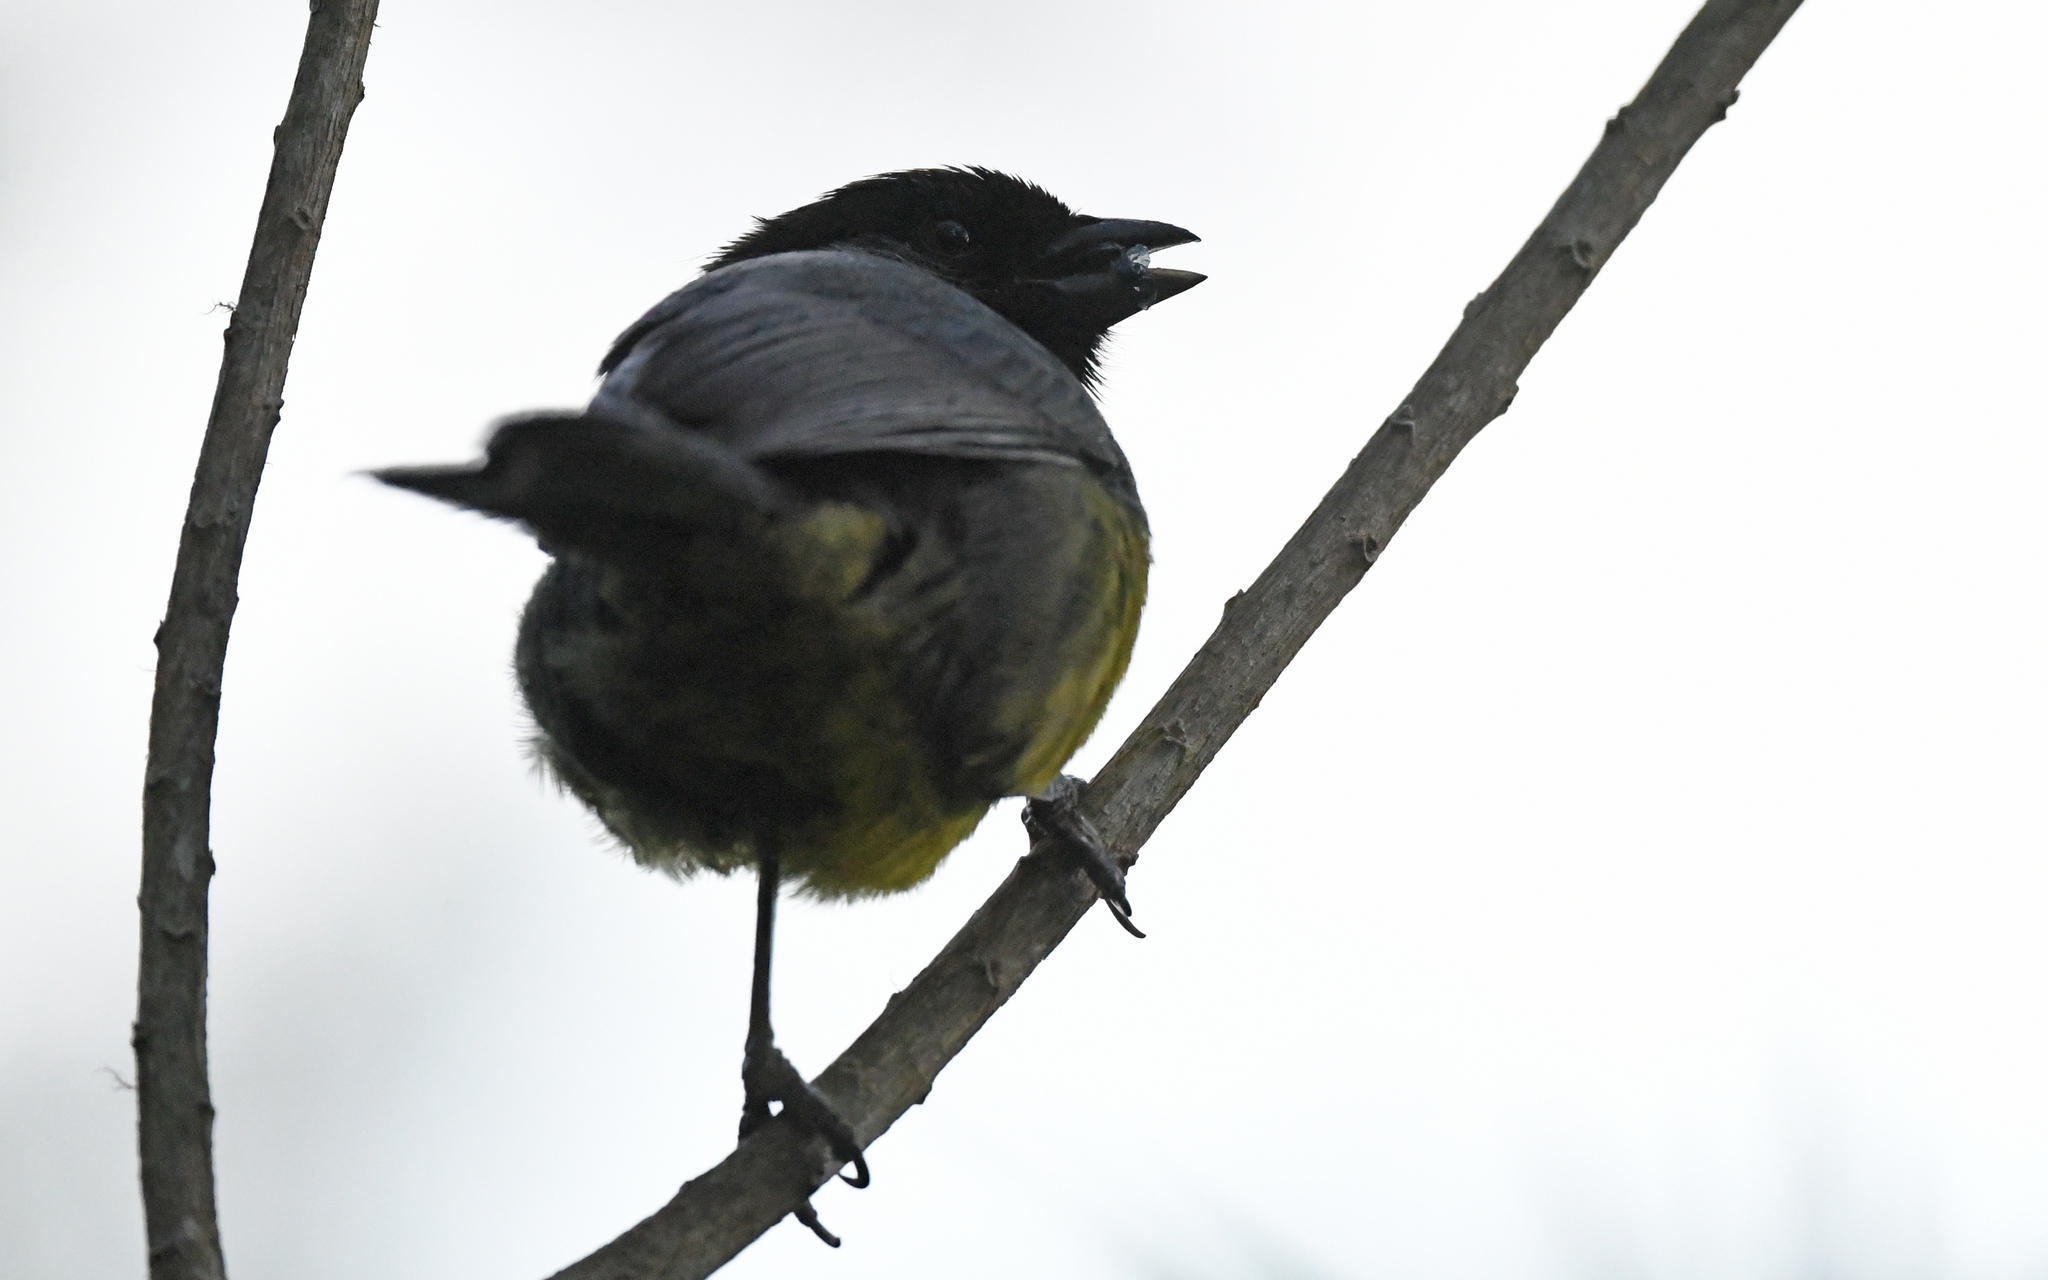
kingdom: Animalia
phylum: Chordata
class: Aves
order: Passeriformes
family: Passerellidae
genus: Atlapetes
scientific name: Atlapetes melanocephalus
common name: Santa marta brush-finch
